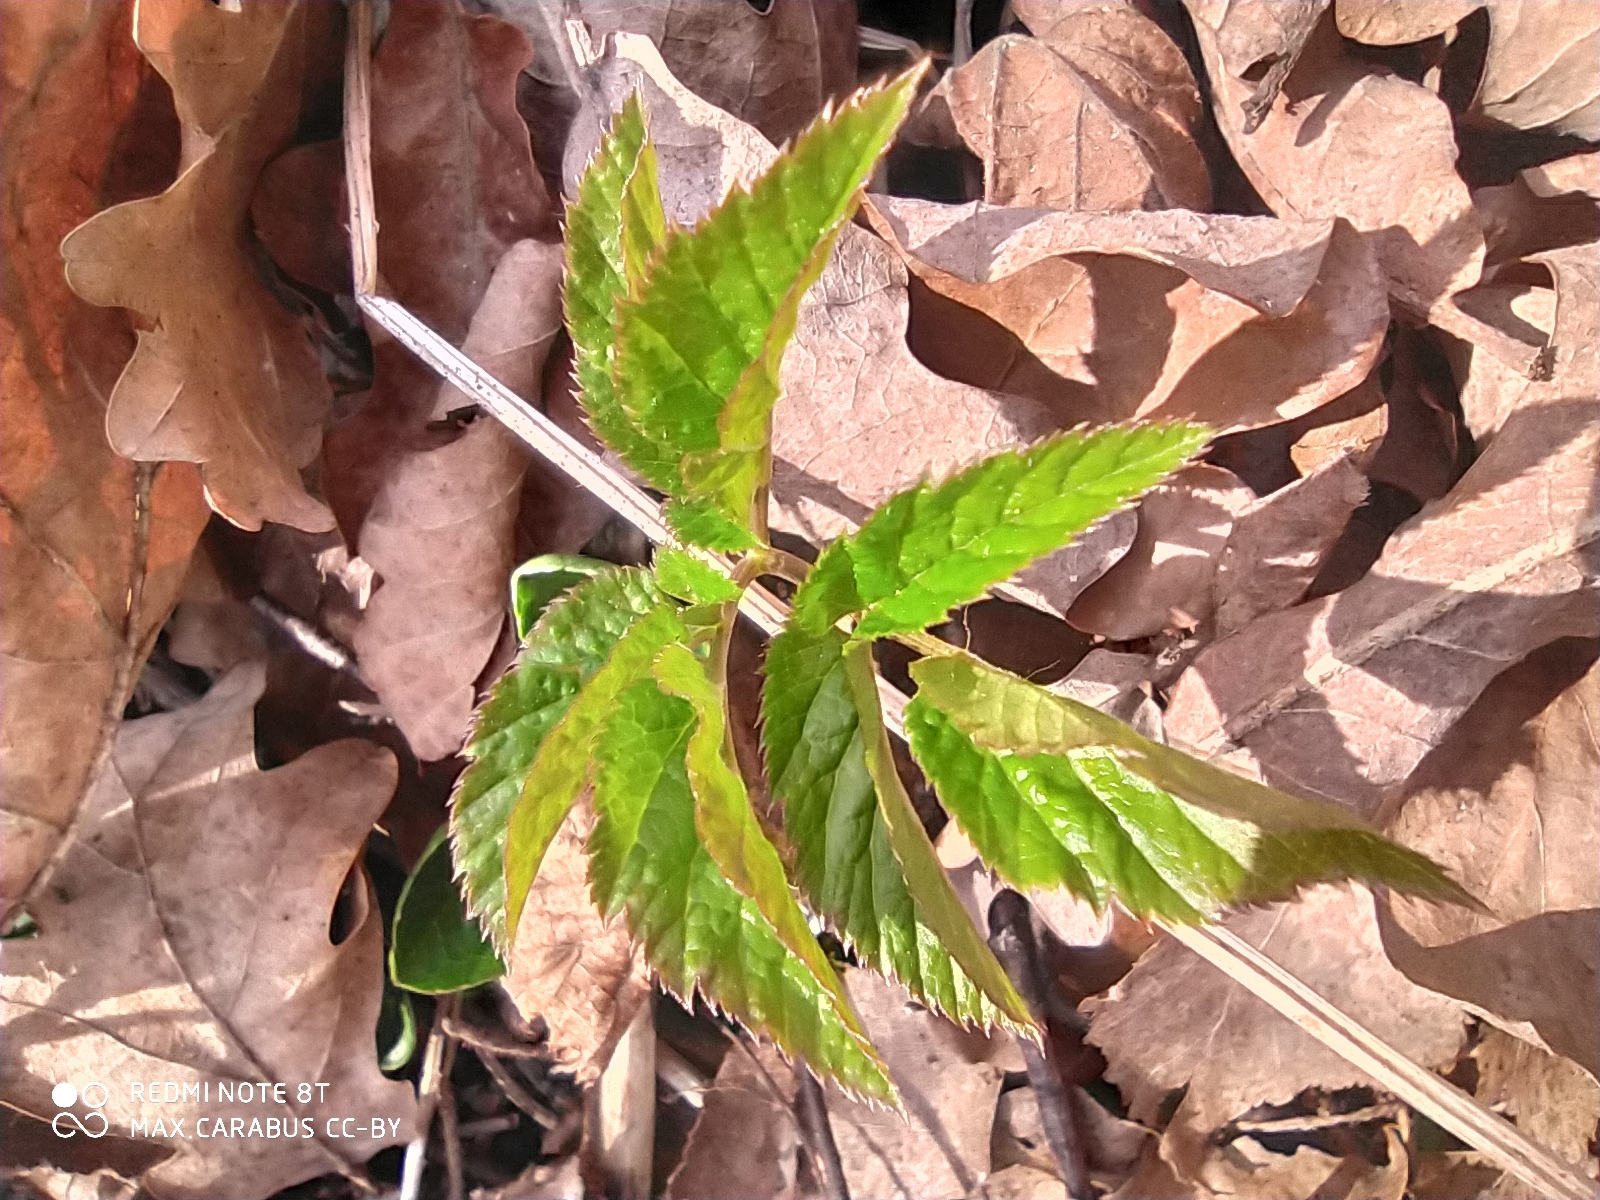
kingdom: Plantae
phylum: Tracheophyta
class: Magnoliopsida
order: Apiales
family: Apiaceae
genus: Aegopodium
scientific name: Aegopodium podagraria
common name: Ground-elder
